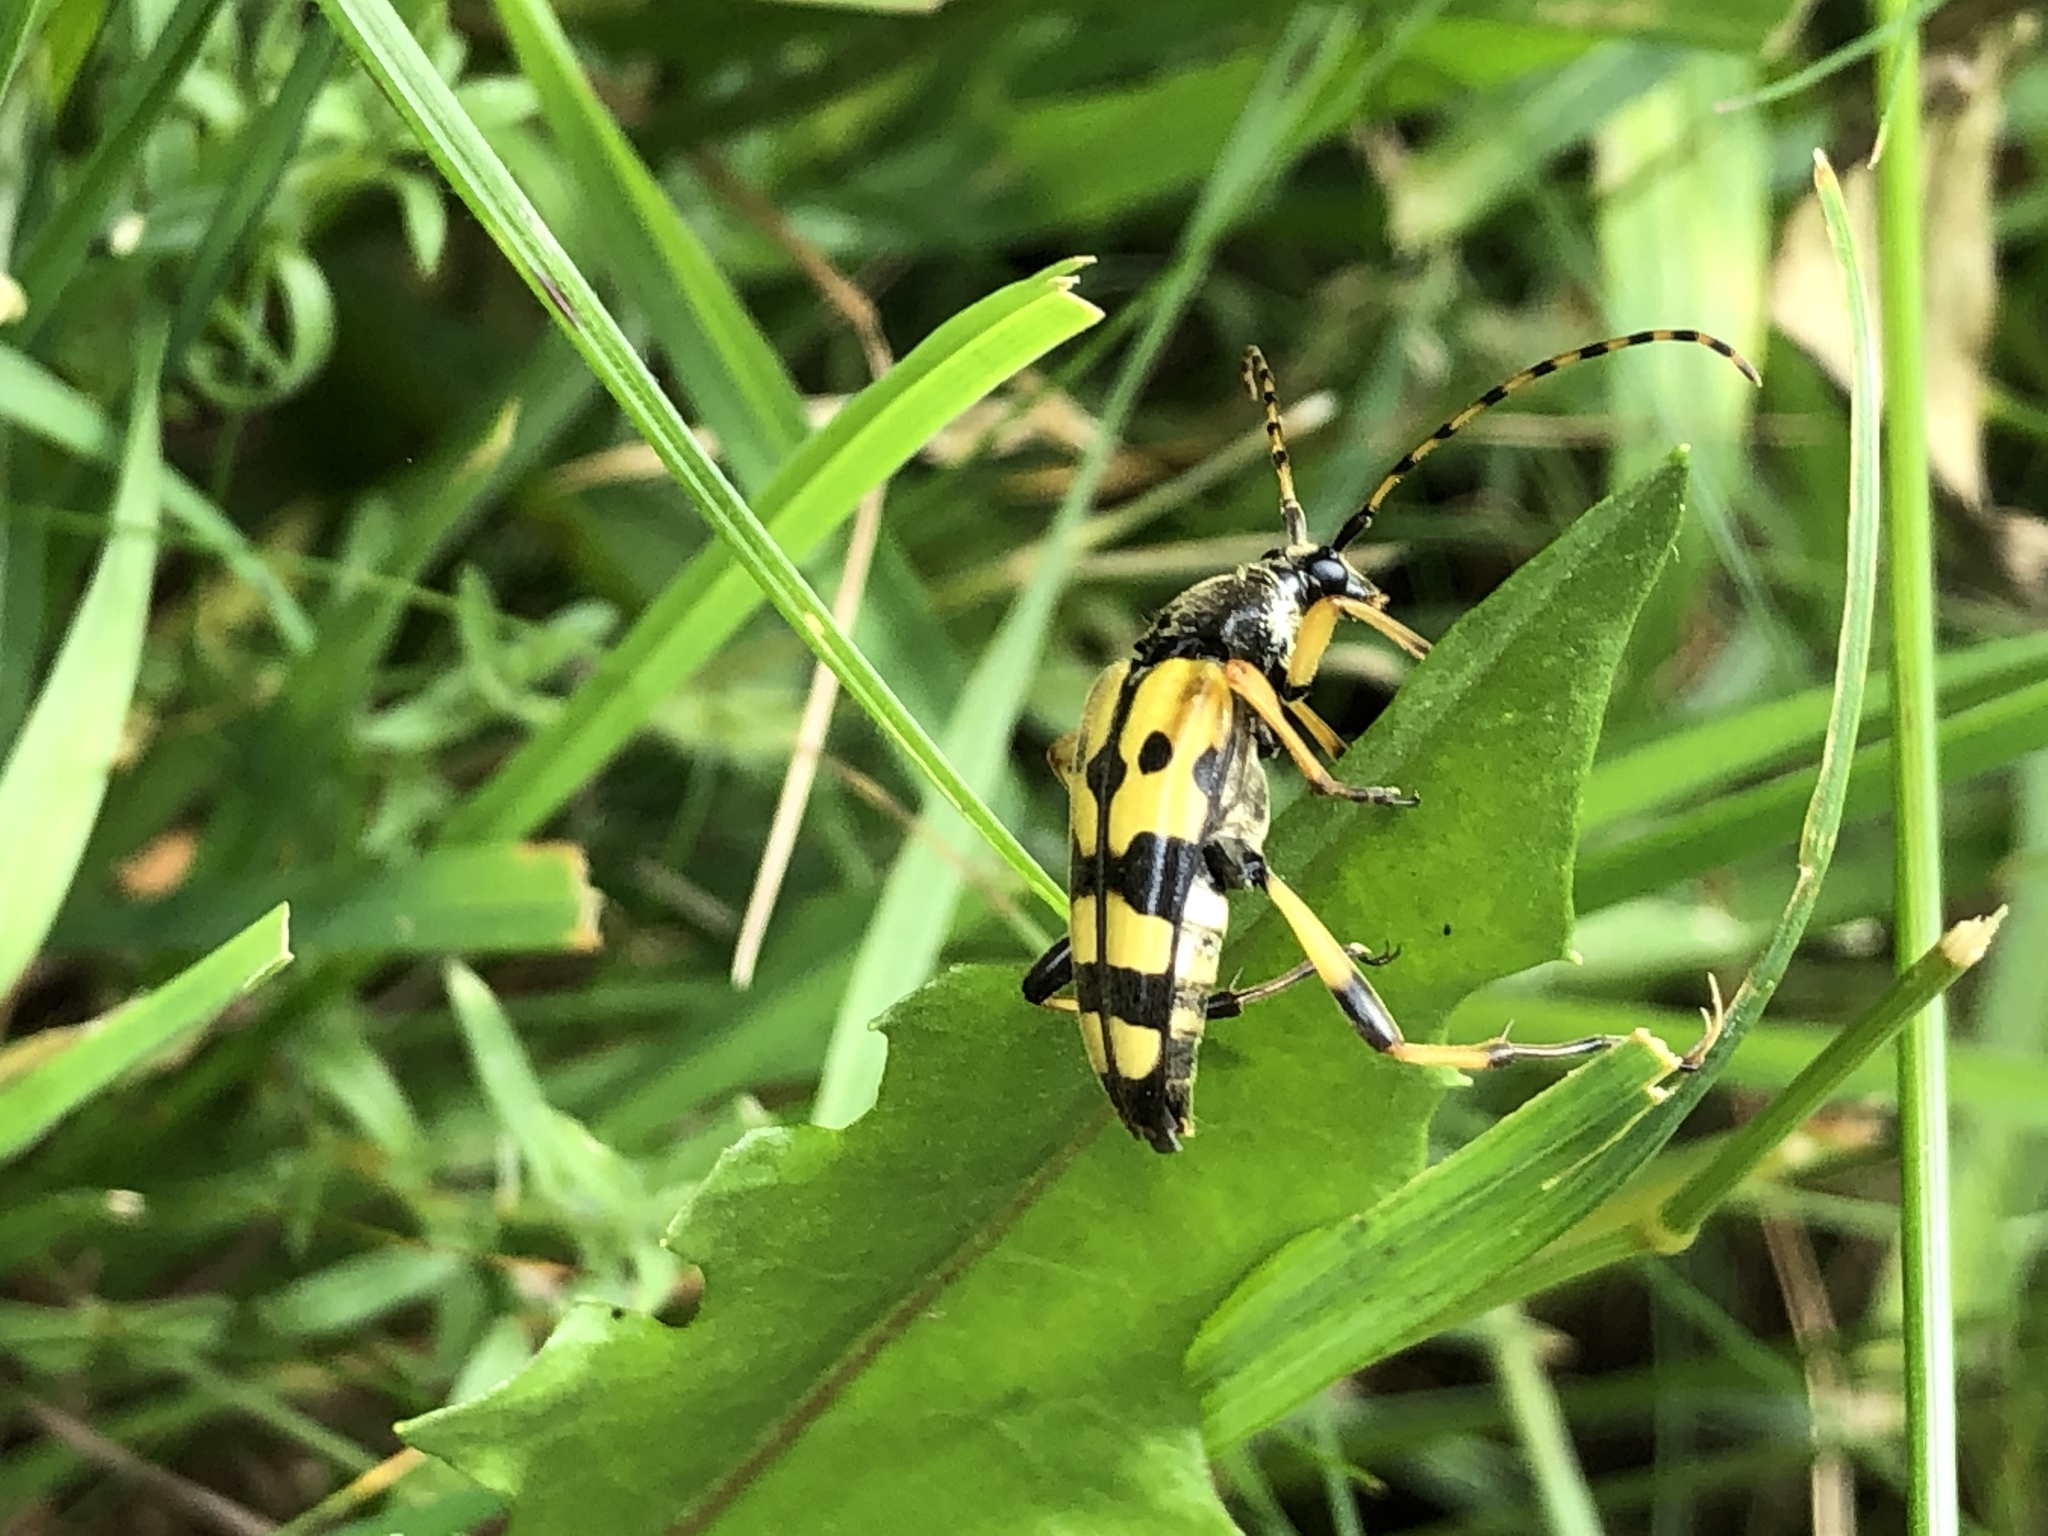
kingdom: Animalia
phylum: Arthropoda
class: Insecta
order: Coleoptera
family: Cerambycidae
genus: Rutpela
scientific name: Rutpela maculata
